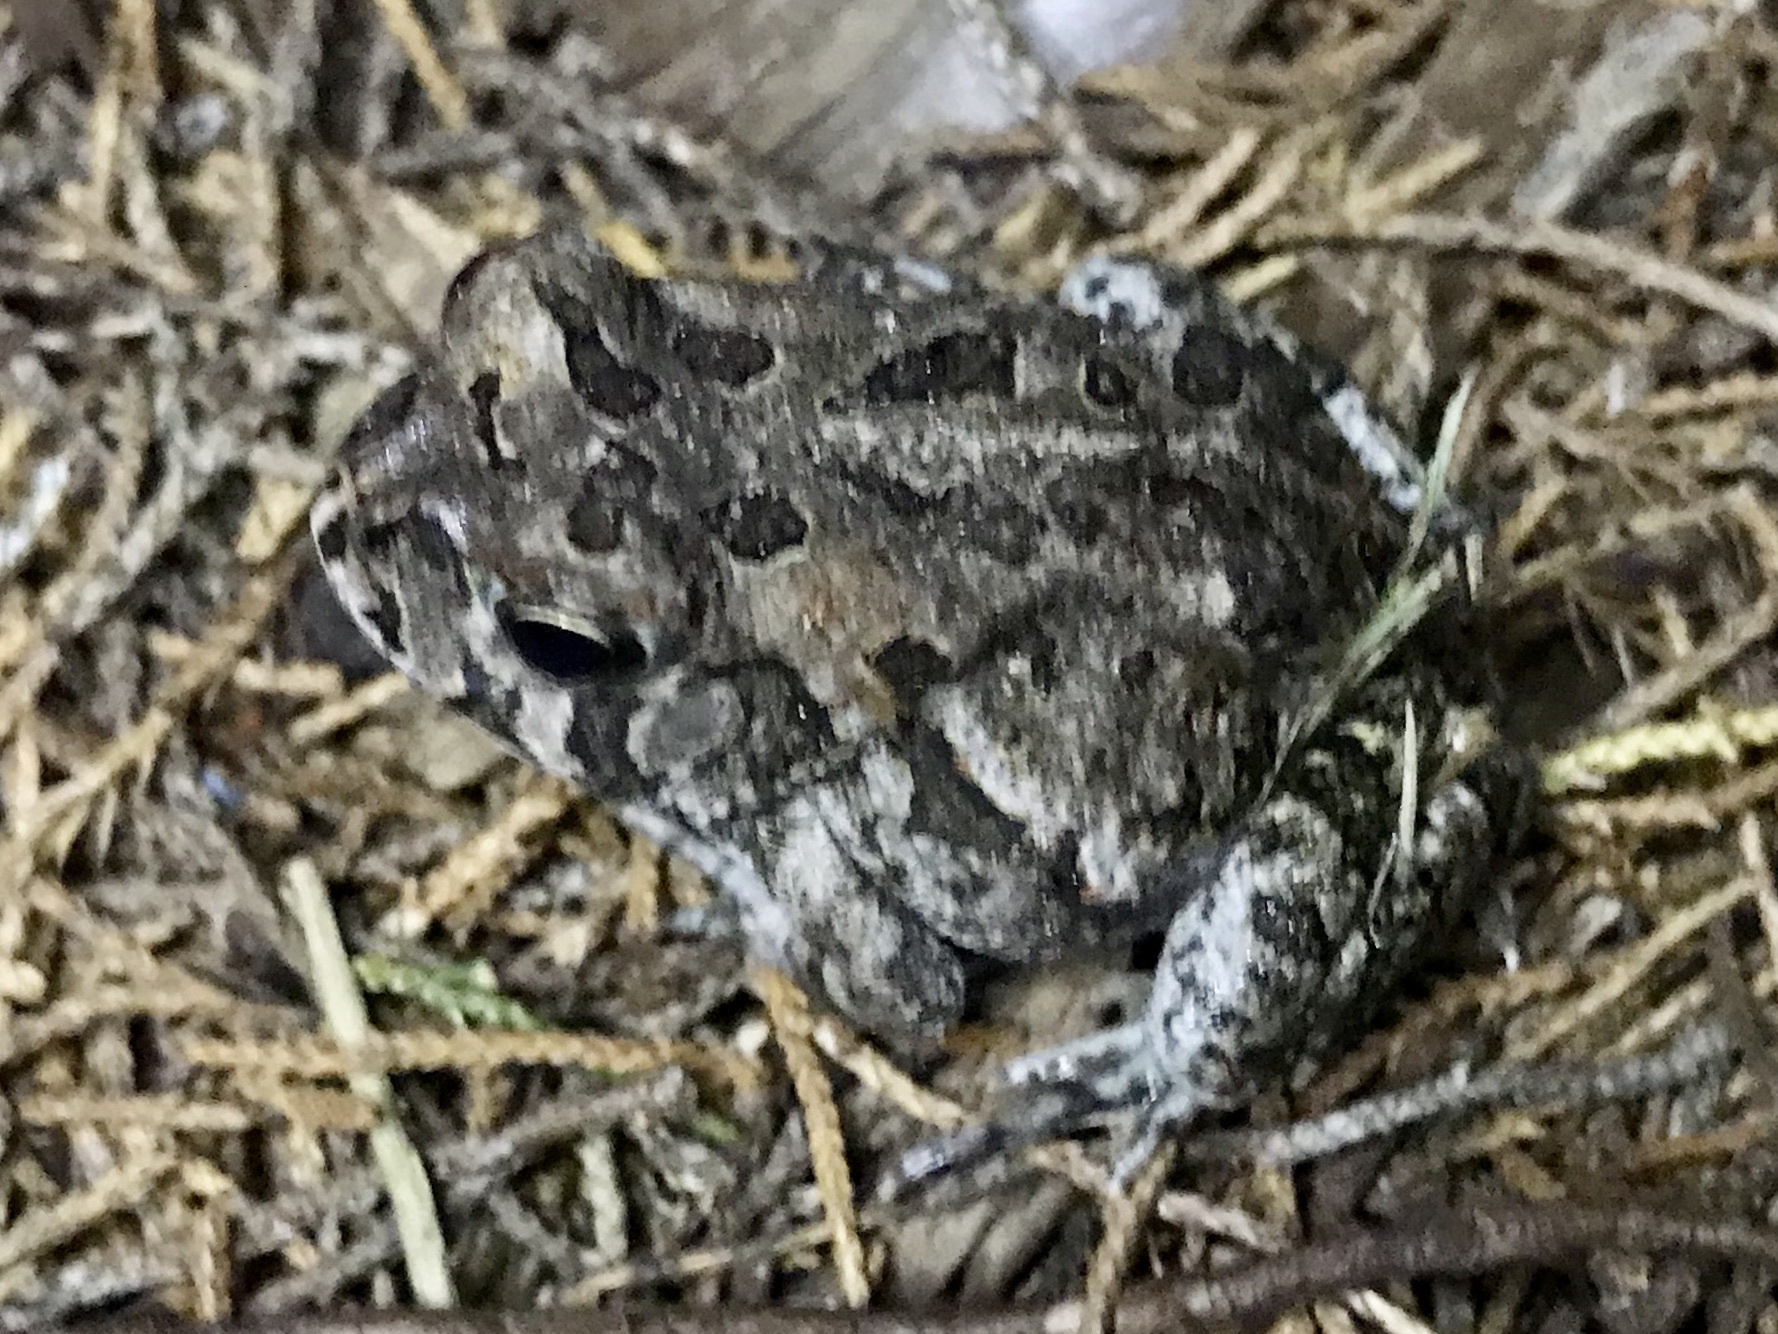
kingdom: Animalia
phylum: Chordata
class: Amphibia
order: Anura
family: Bufonidae
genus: Anaxyrus
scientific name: Anaxyrus fowleri
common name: Fowler's toad
